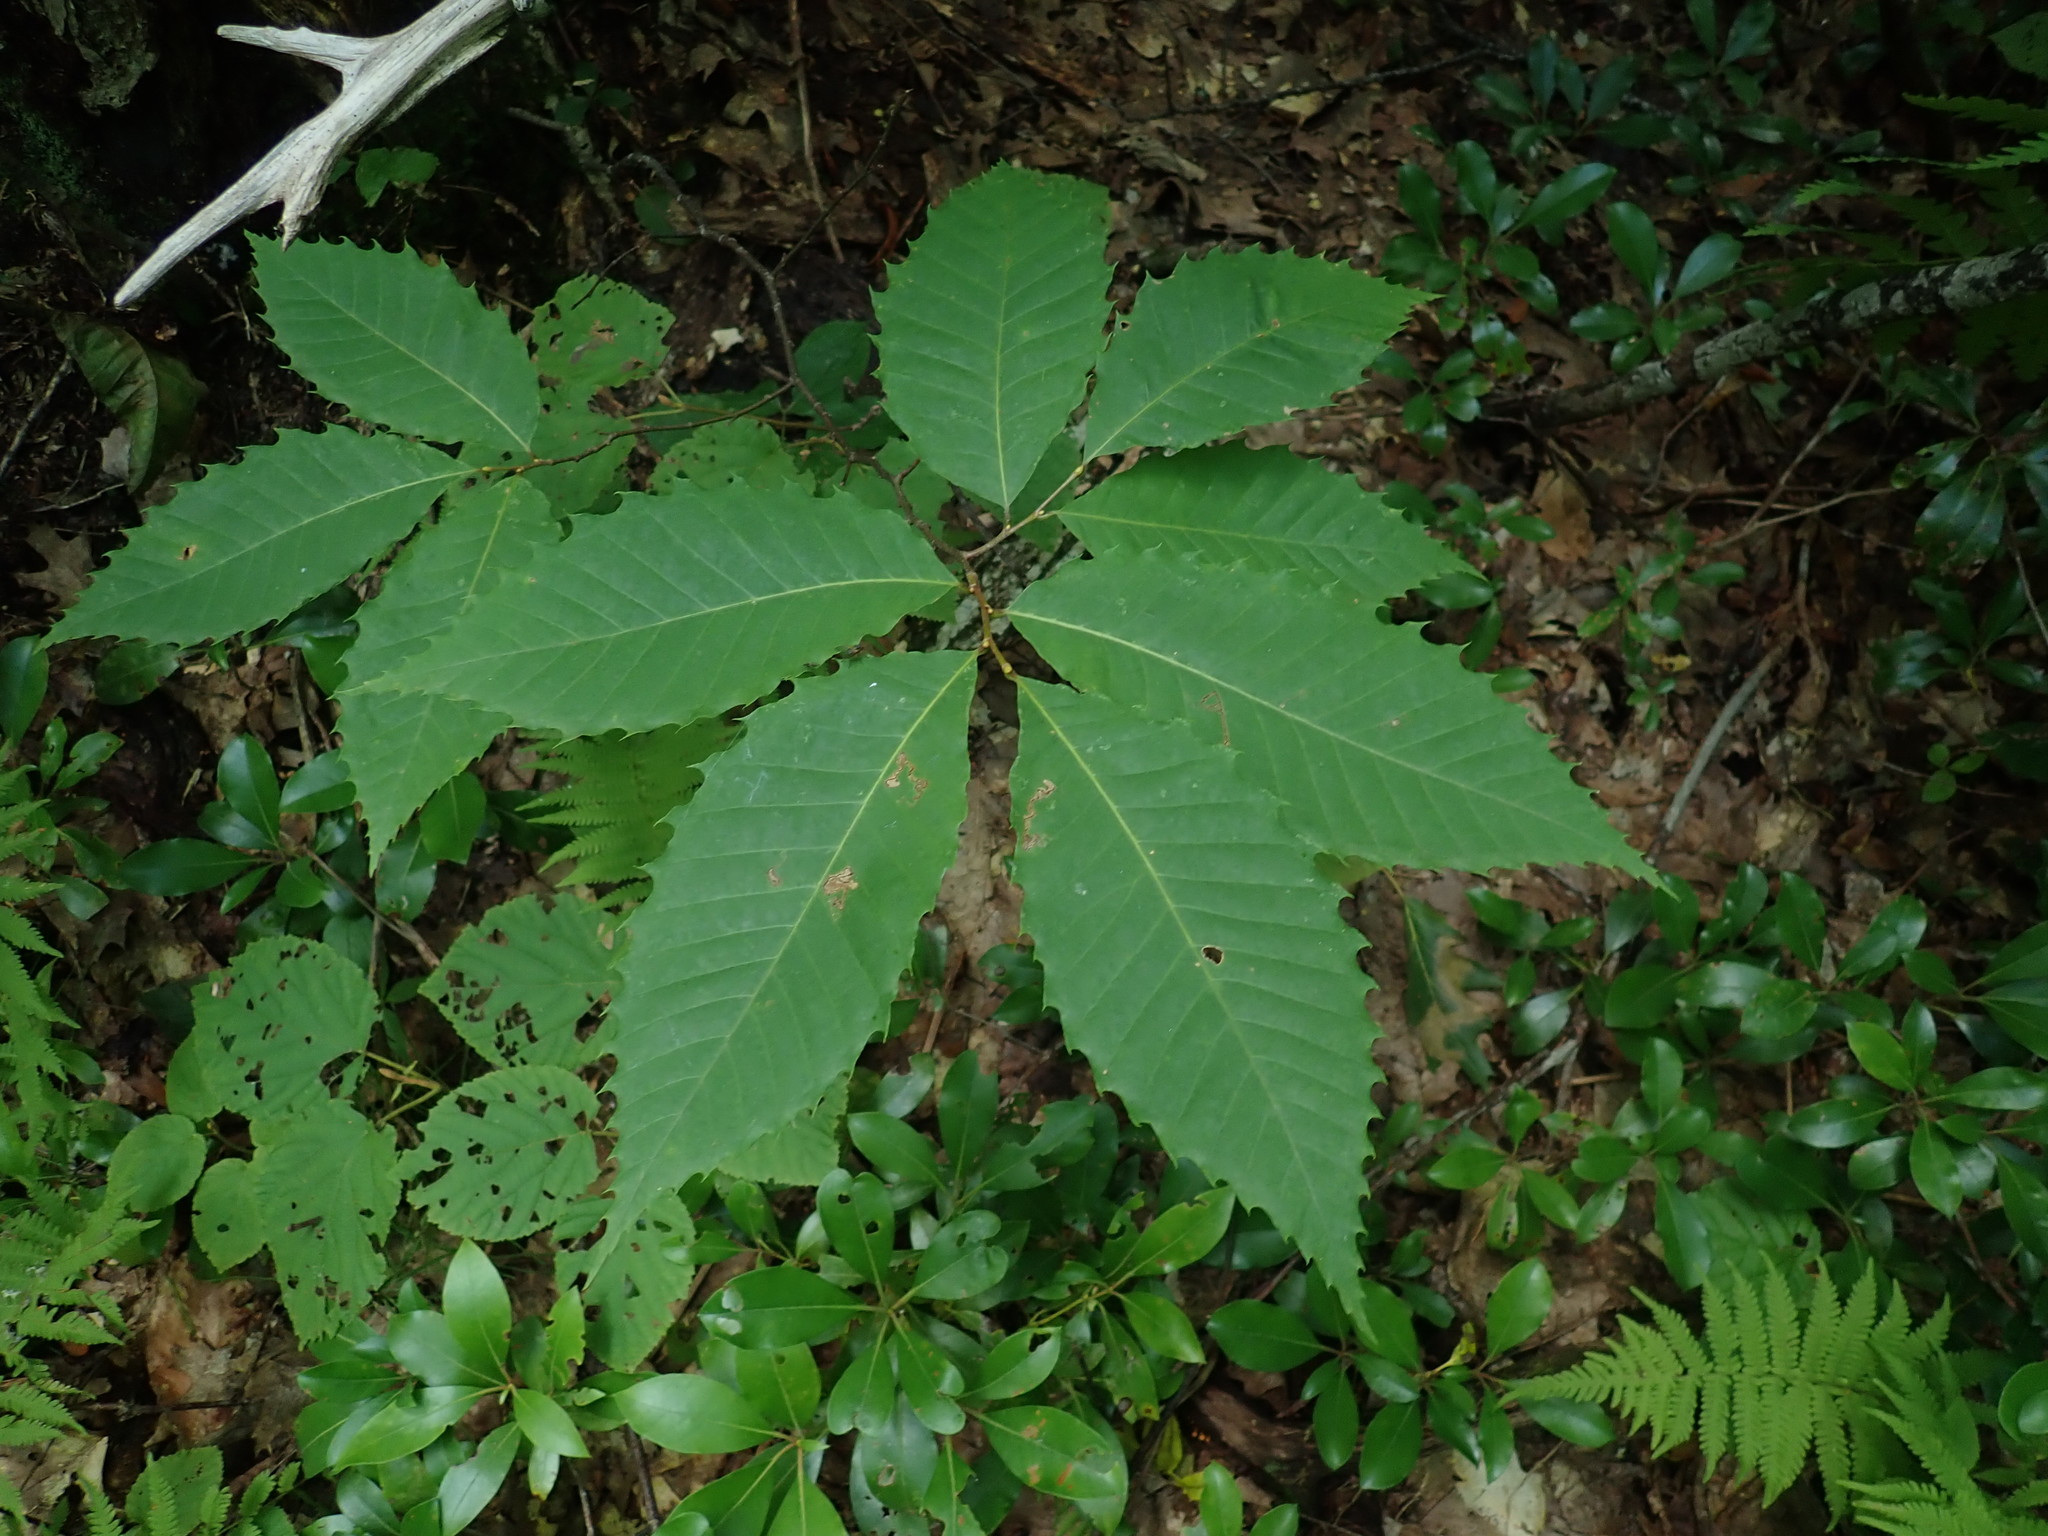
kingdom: Plantae
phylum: Tracheophyta
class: Magnoliopsida
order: Fagales
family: Fagaceae
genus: Castanea
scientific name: Castanea dentata
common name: American chestnut
